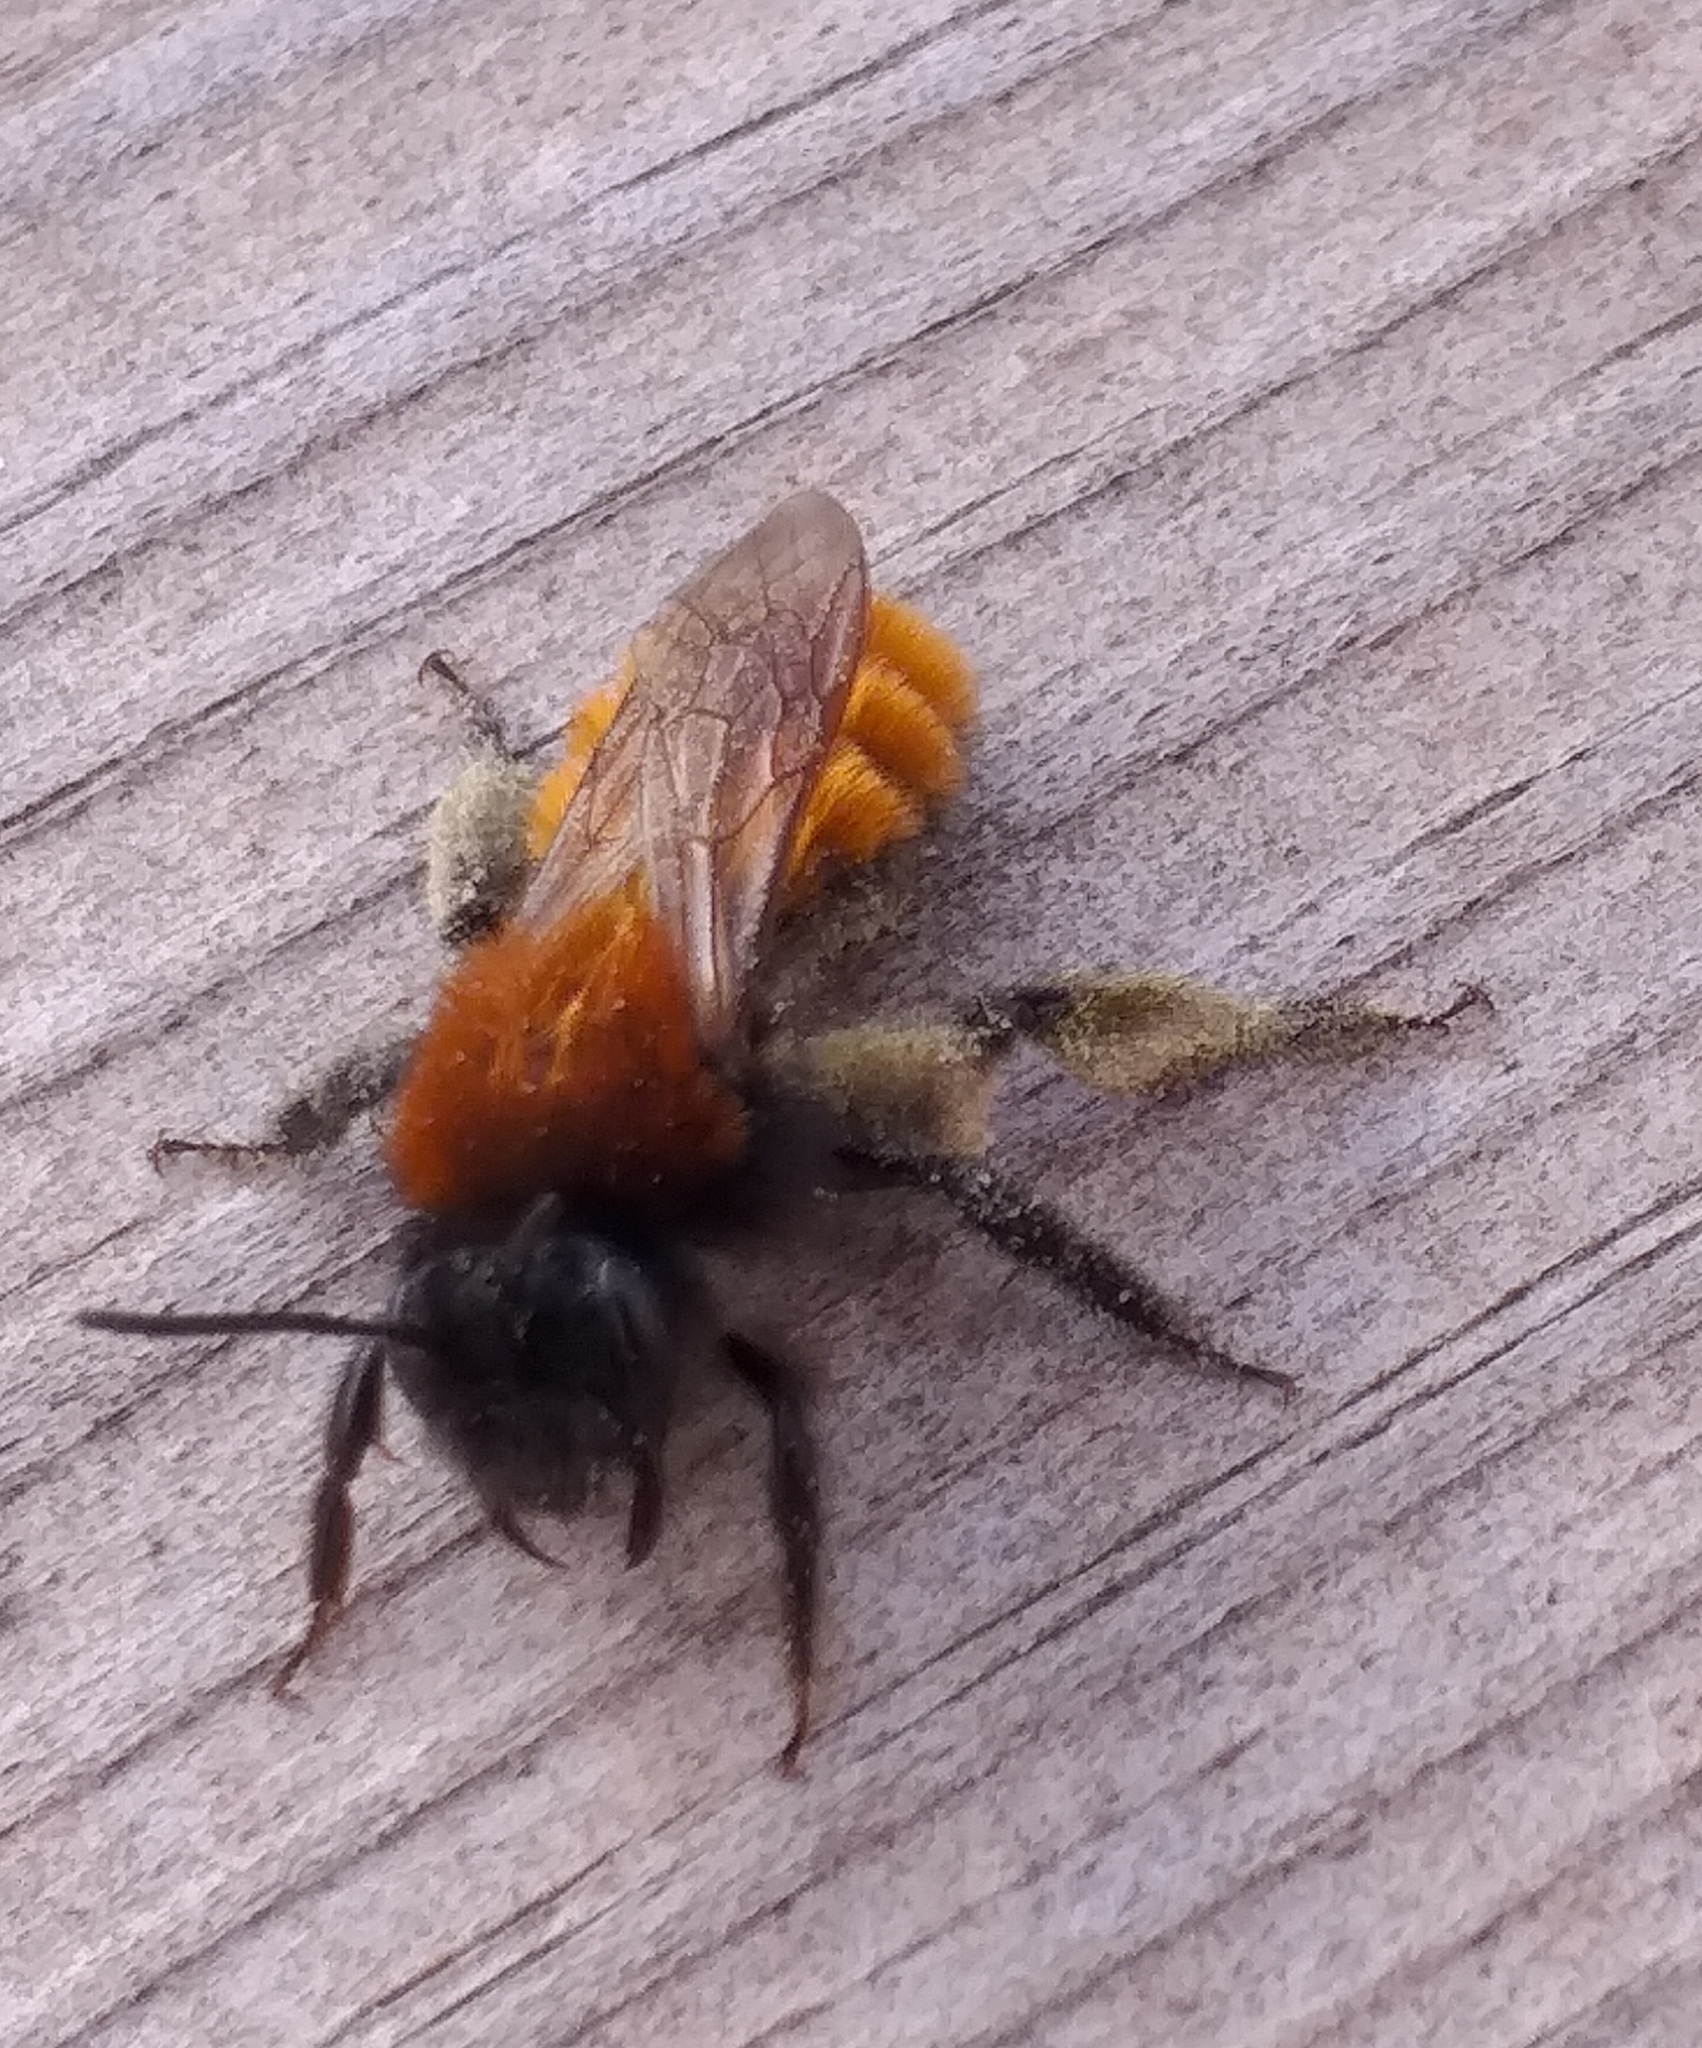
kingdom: Animalia
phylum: Arthropoda
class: Insecta
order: Hymenoptera
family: Andrenidae
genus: Andrena
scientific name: Andrena fulva
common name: Tawny mining bee
